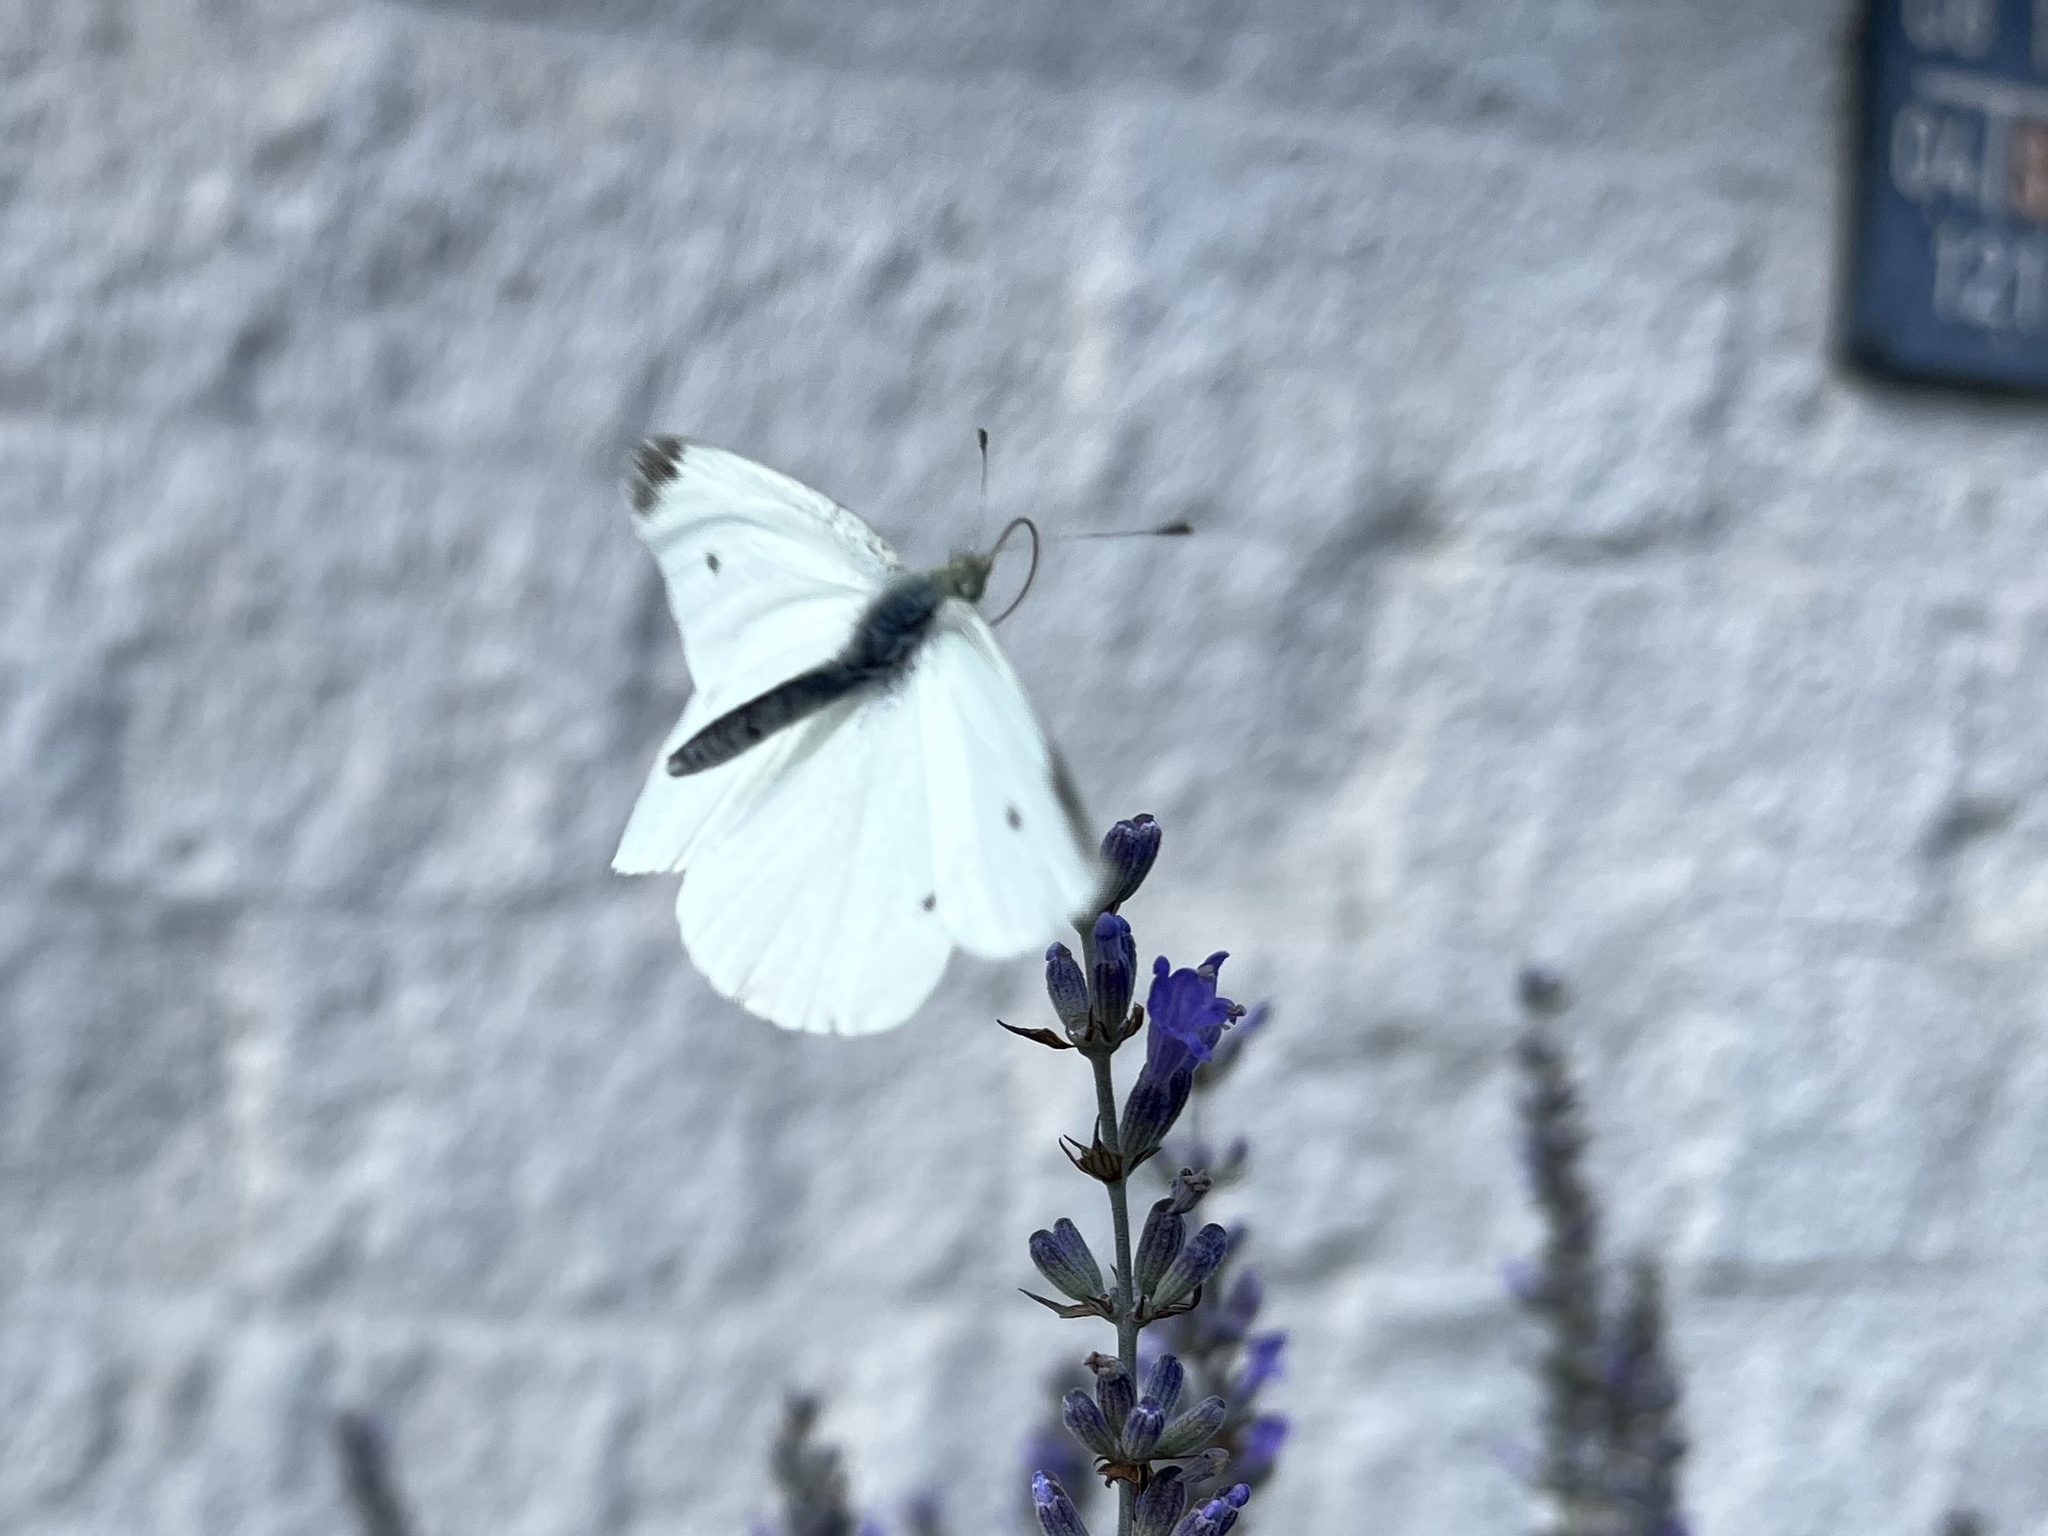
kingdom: Animalia
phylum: Arthropoda
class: Insecta
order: Lepidoptera
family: Pieridae
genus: Pieris
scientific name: Pieris rapae
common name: Small white
